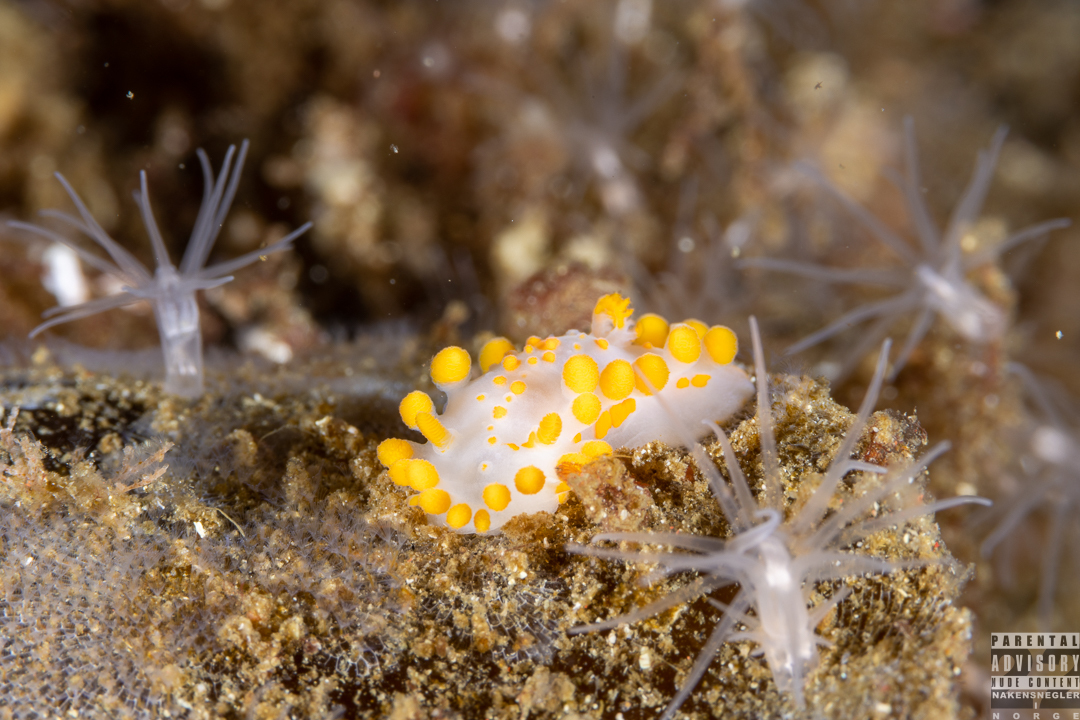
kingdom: Animalia
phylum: Mollusca
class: Gastropoda
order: Nudibranchia
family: Polyceridae
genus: Limacia
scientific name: Limacia clavigera
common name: Orange-clubbed sea slug
